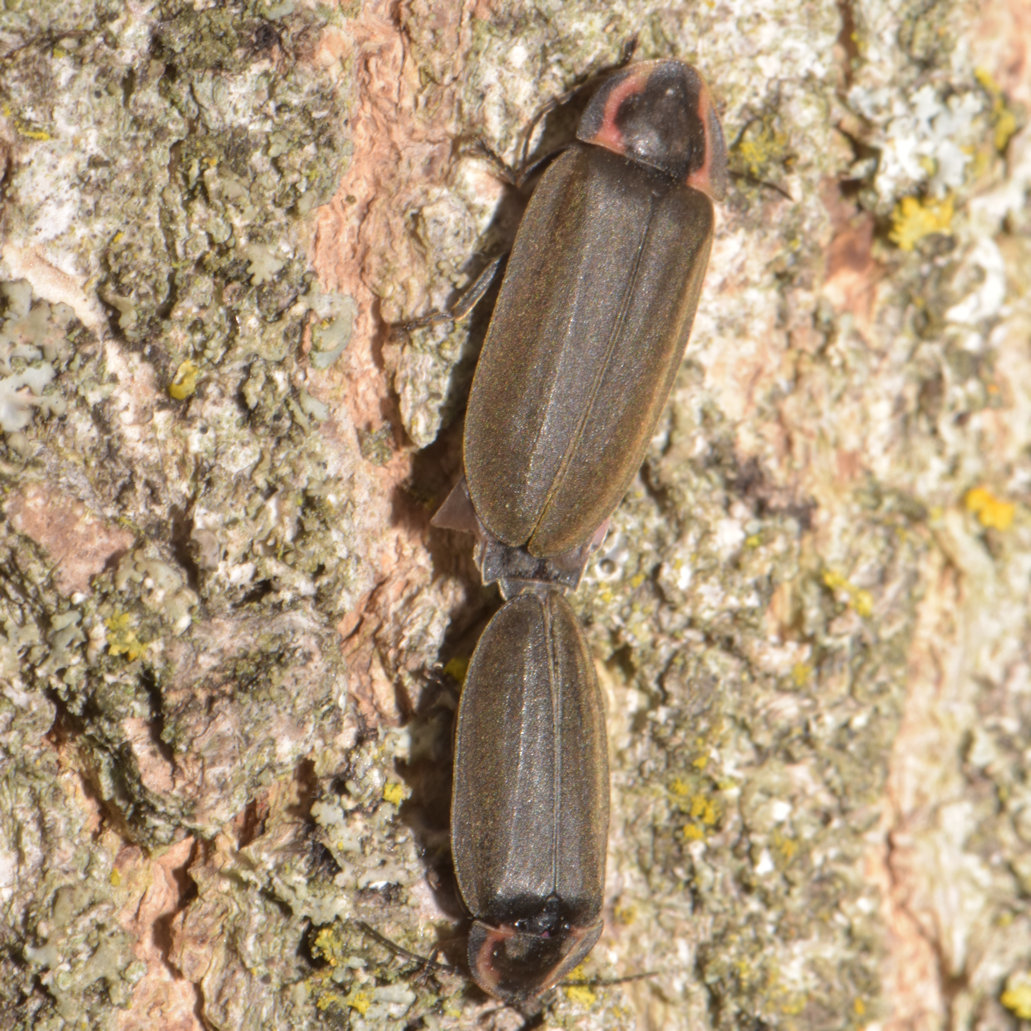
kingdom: Animalia
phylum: Arthropoda
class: Insecta
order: Coleoptera
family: Lampyridae
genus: Photinus
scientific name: Photinus corrusca
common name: Winter firefly
